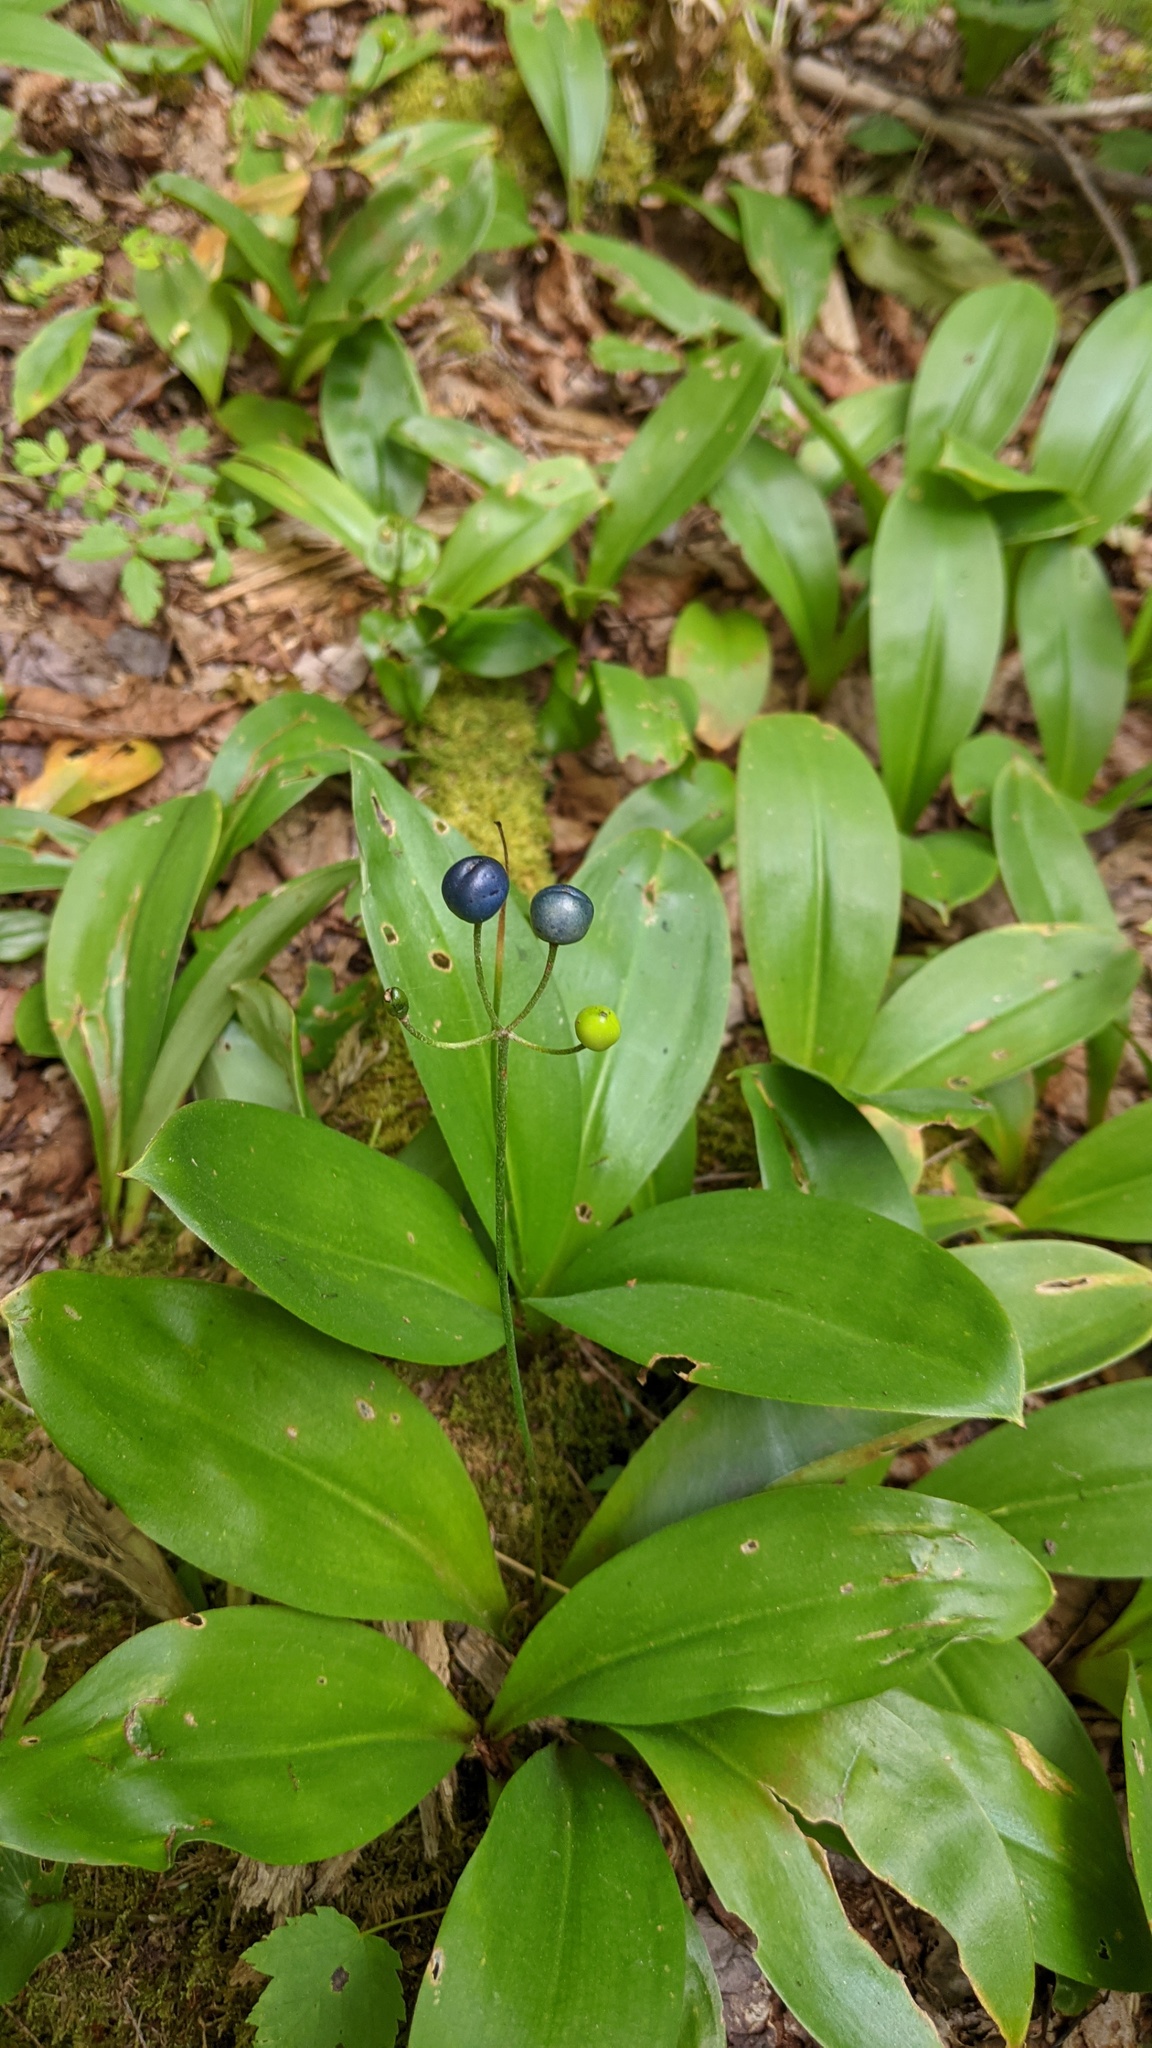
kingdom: Plantae
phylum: Tracheophyta
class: Liliopsida
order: Liliales
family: Liliaceae
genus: Clintonia
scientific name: Clintonia borealis
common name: Yellow clintonia
